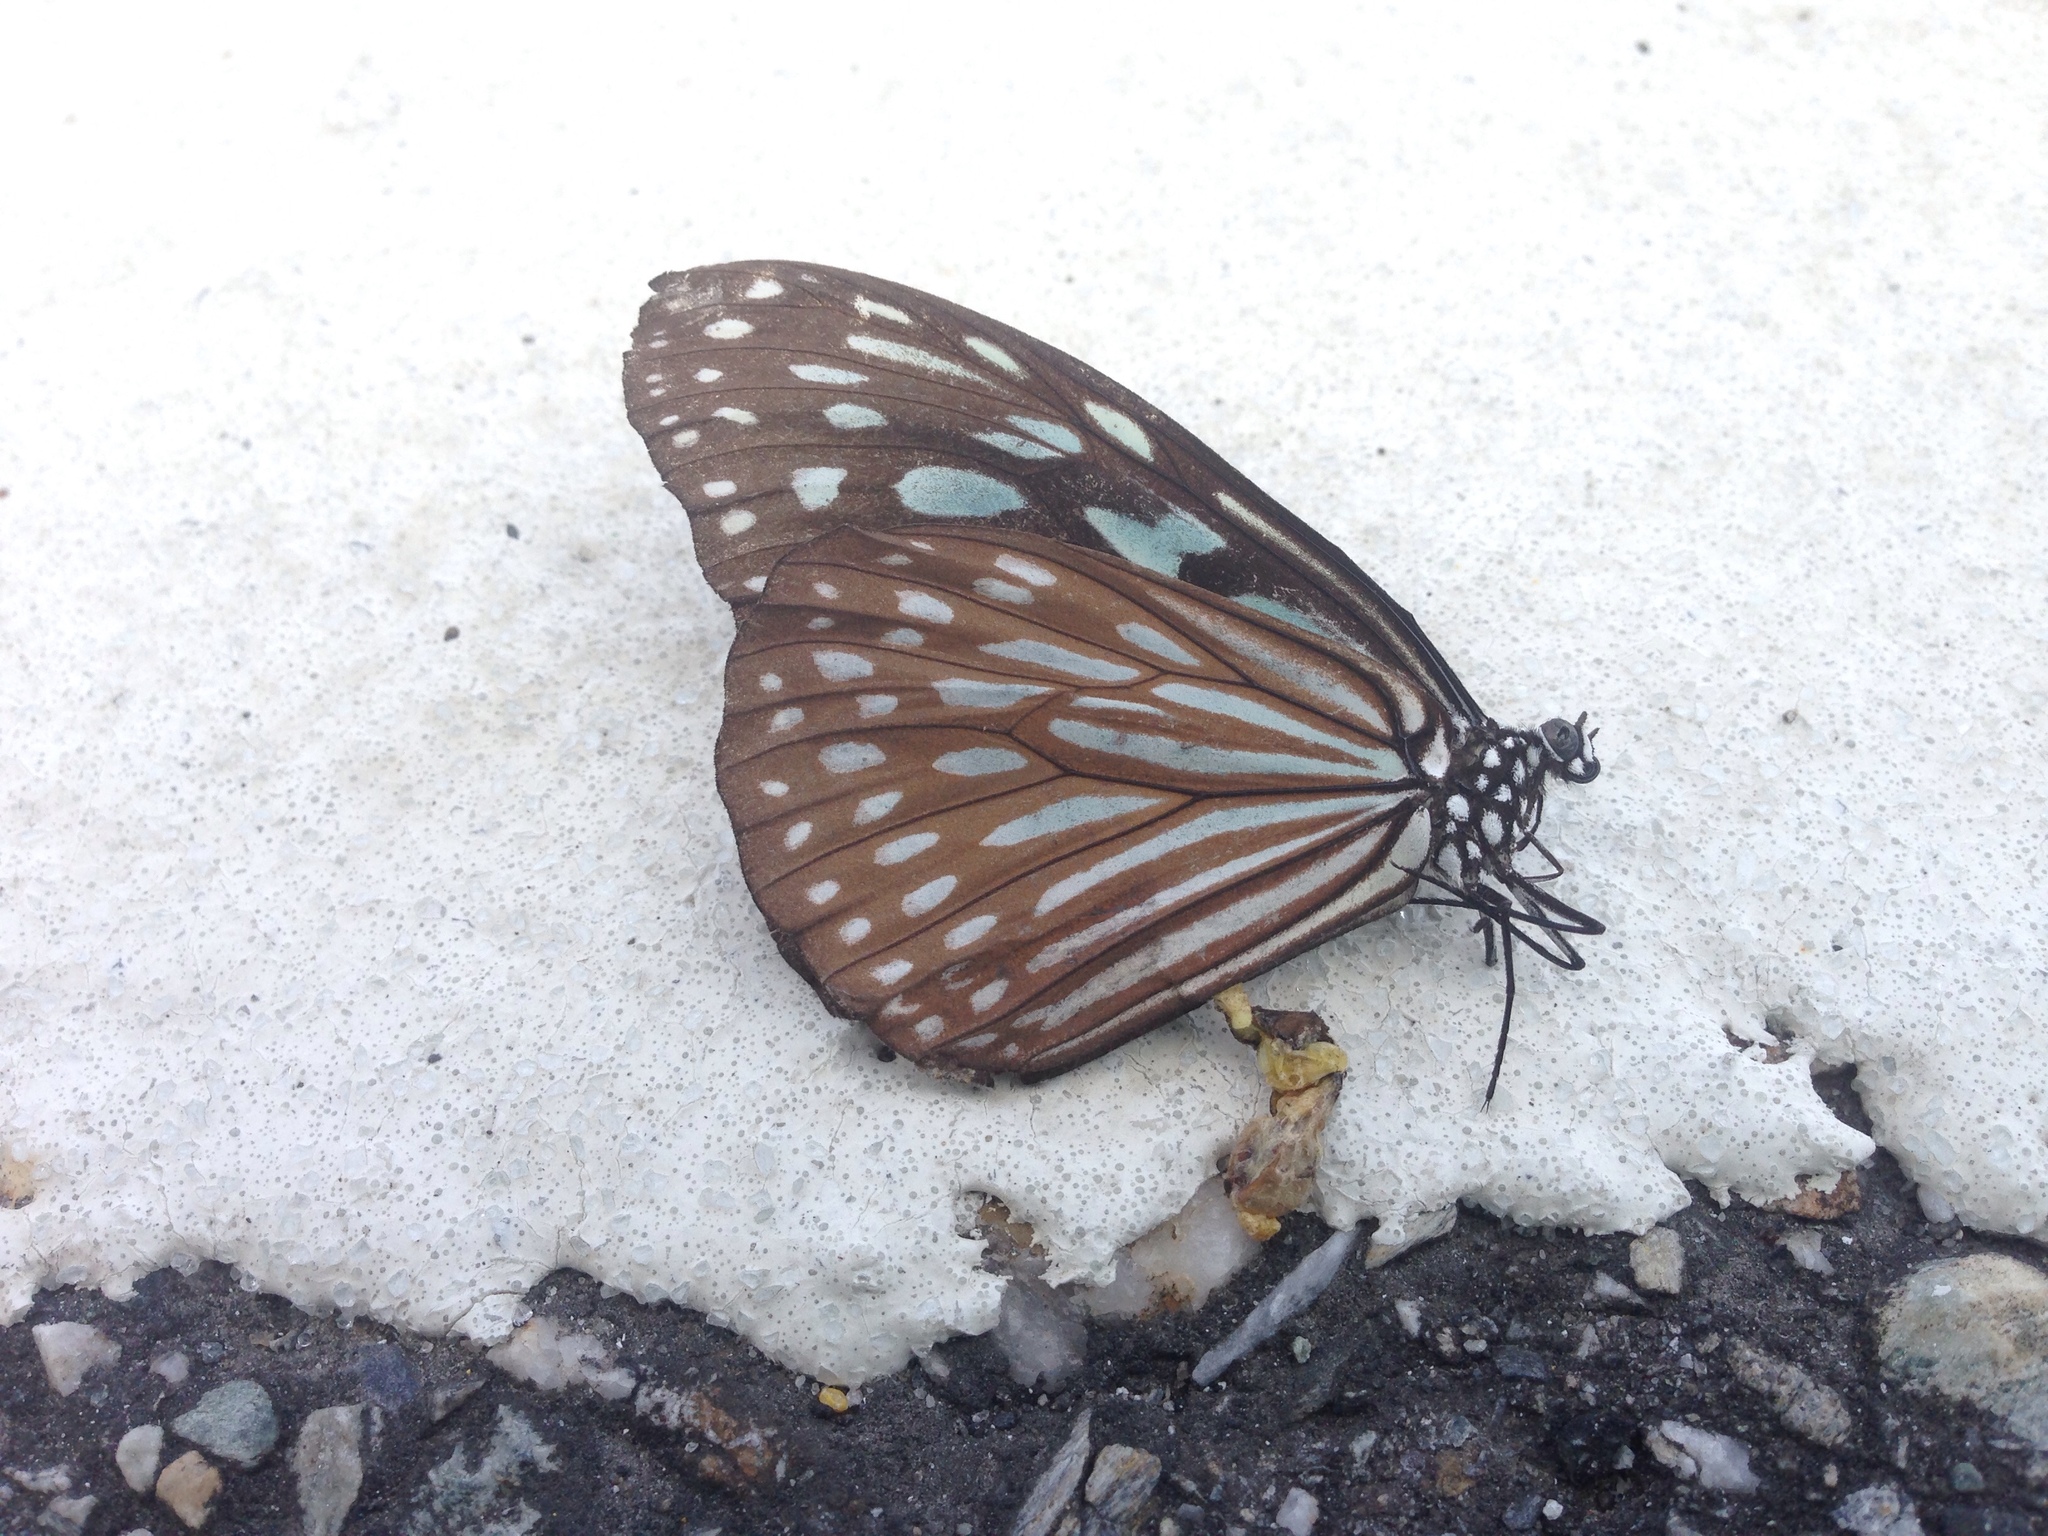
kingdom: Animalia
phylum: Arthropoda
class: Insecta
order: Lepidoptera
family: Nymphalidae
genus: Ideopsis
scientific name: Ideopsis similis
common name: Ceylon blue glassy tiger
